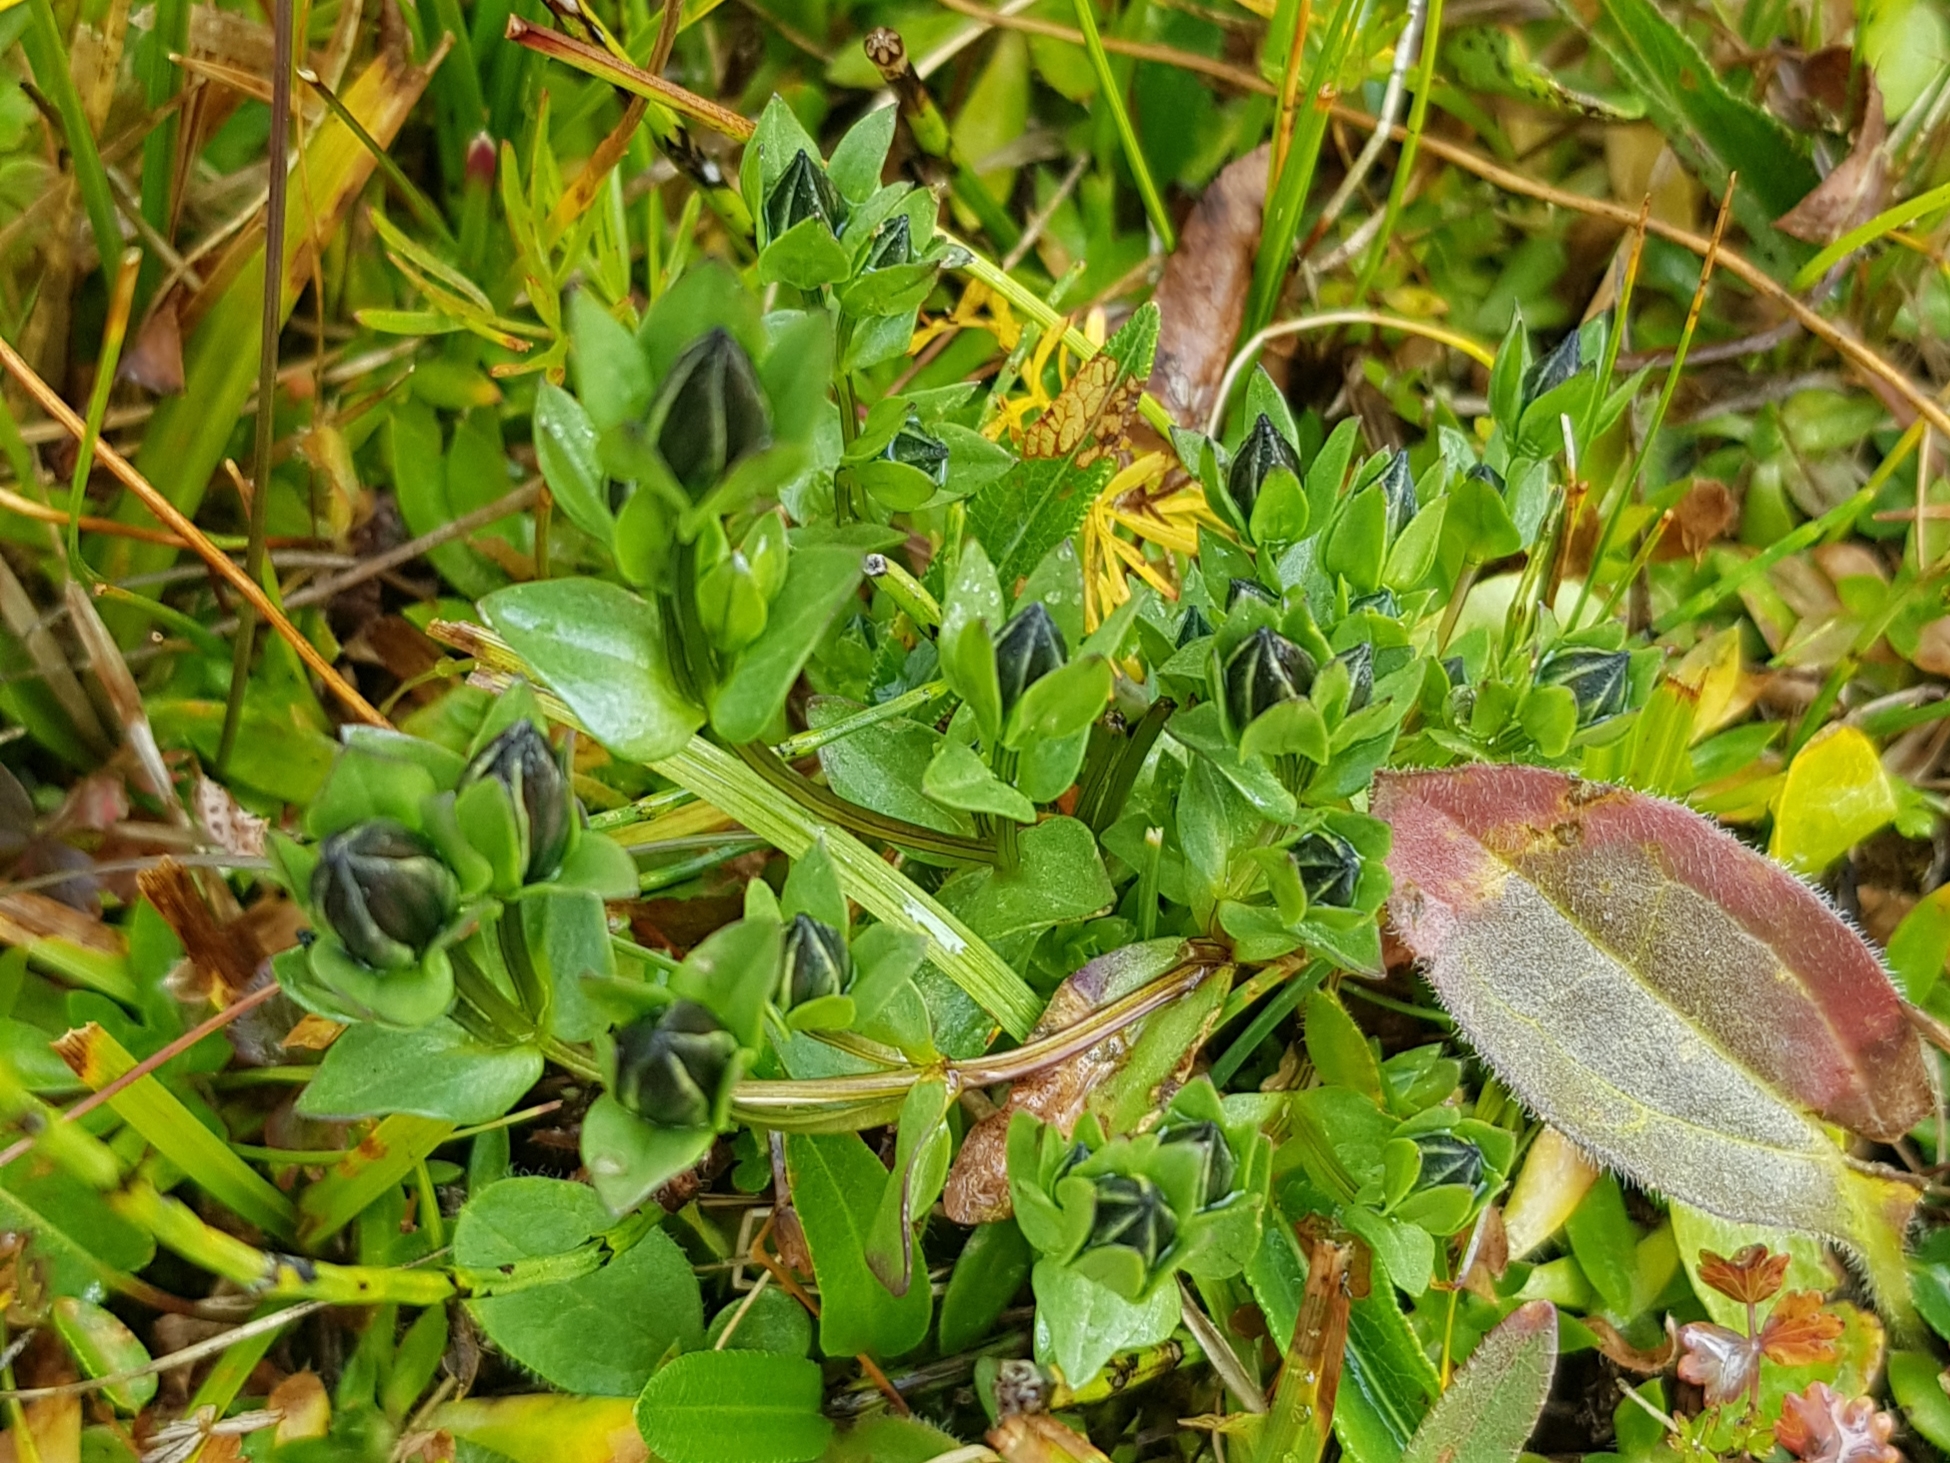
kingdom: Plantae
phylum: Tracheophyta
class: Magnoliopsida
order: Gentianales
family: Gentianaceae
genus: Comastoma
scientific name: Comastoma tenellum
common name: Dane's dwarf gentian
